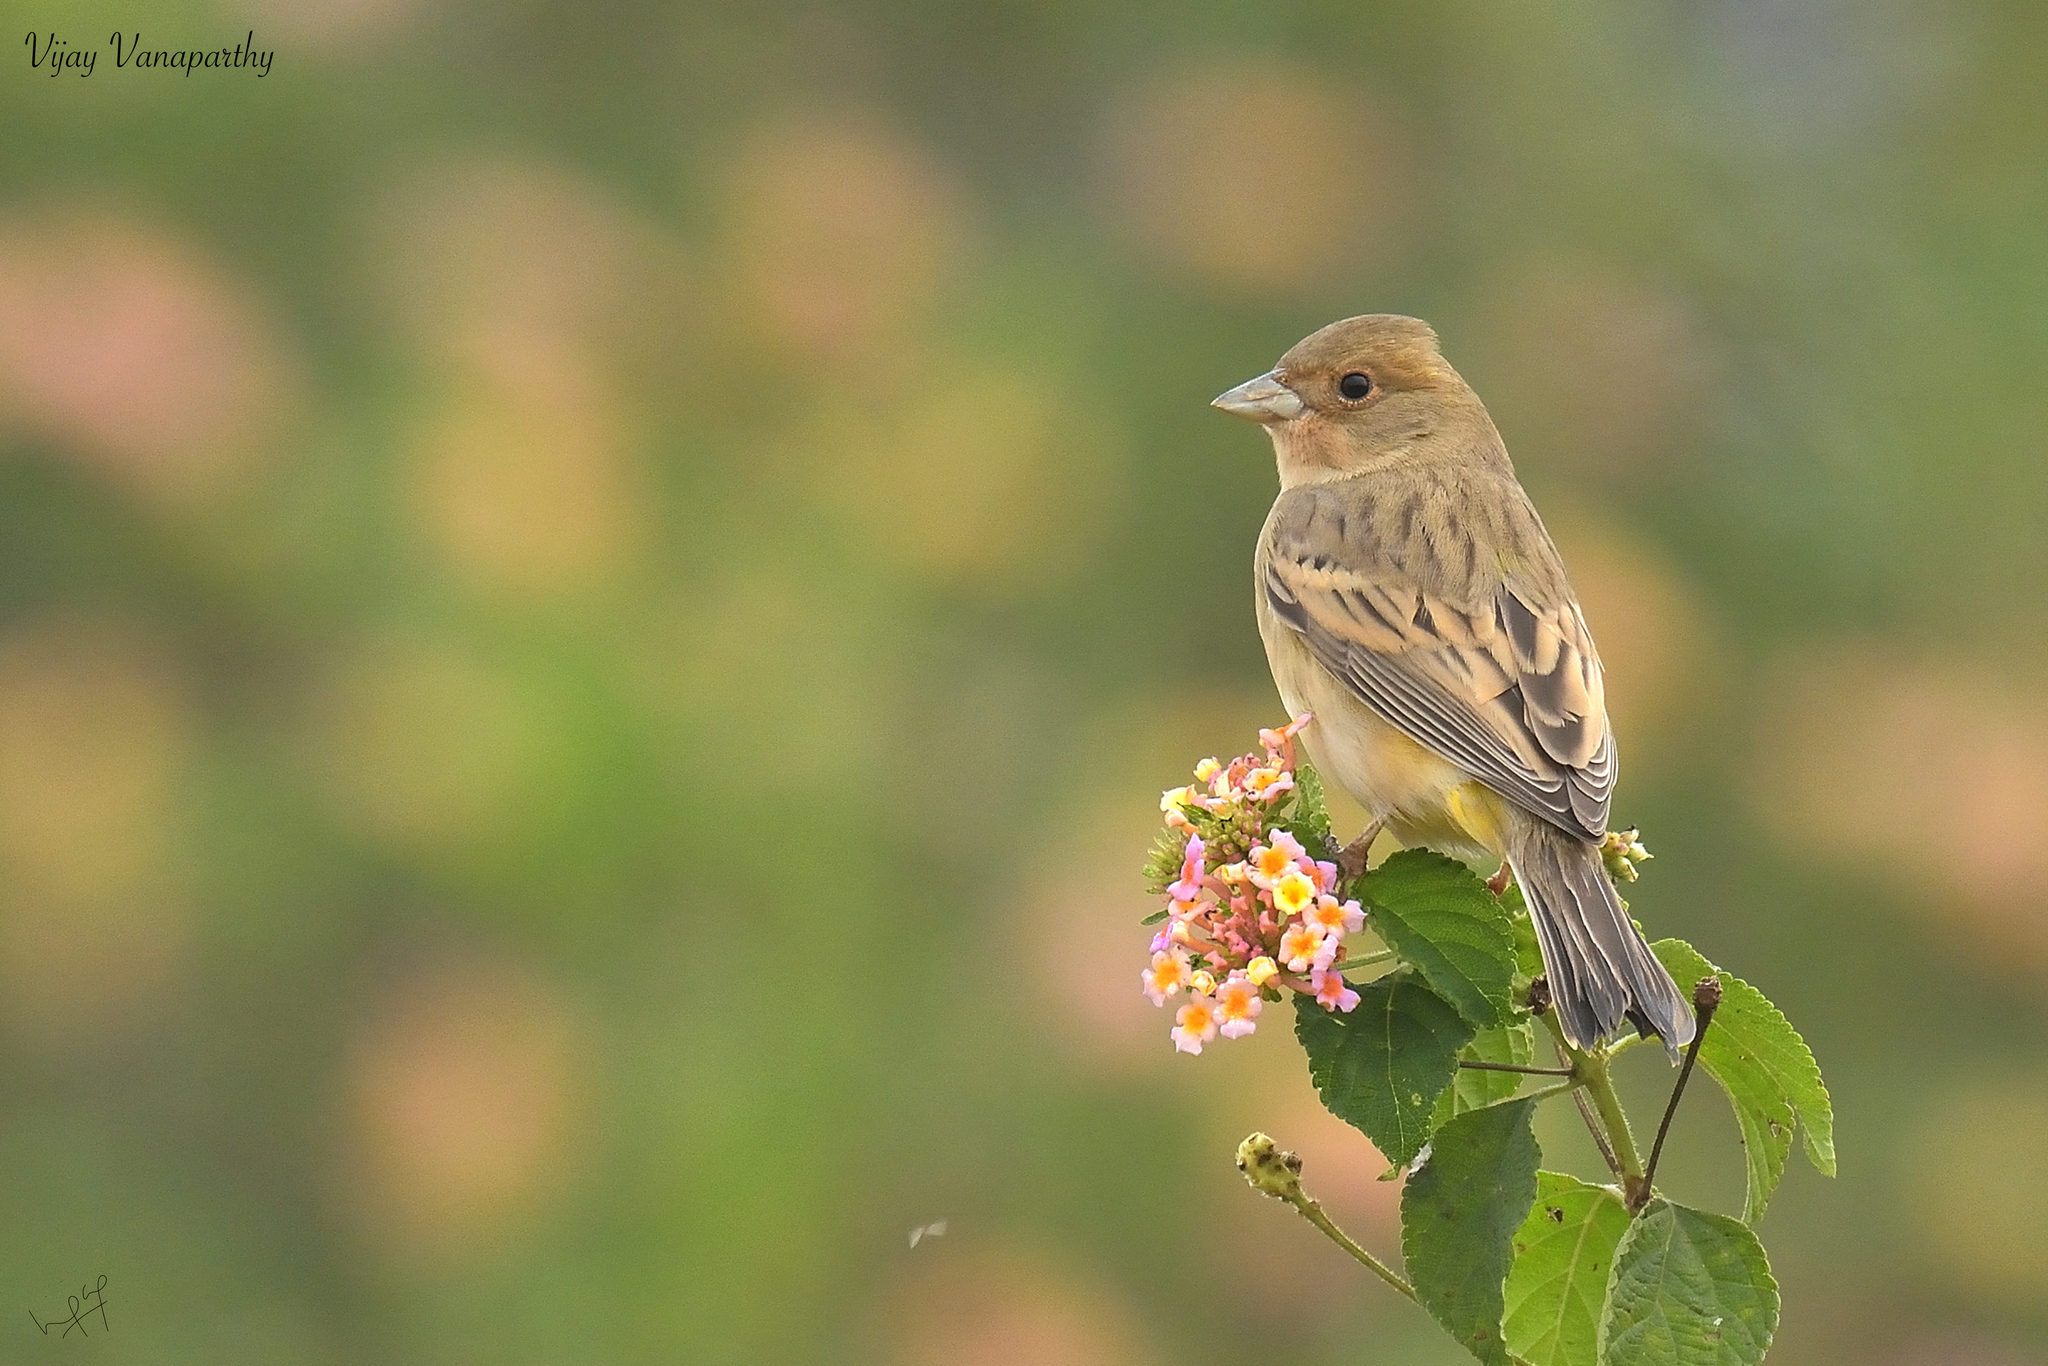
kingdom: Animalia
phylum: Chordata
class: Aves
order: Passeriformes
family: Emberizidae
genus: Emberiza
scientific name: Emberiza melanocephala
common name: Black-headed bunting
